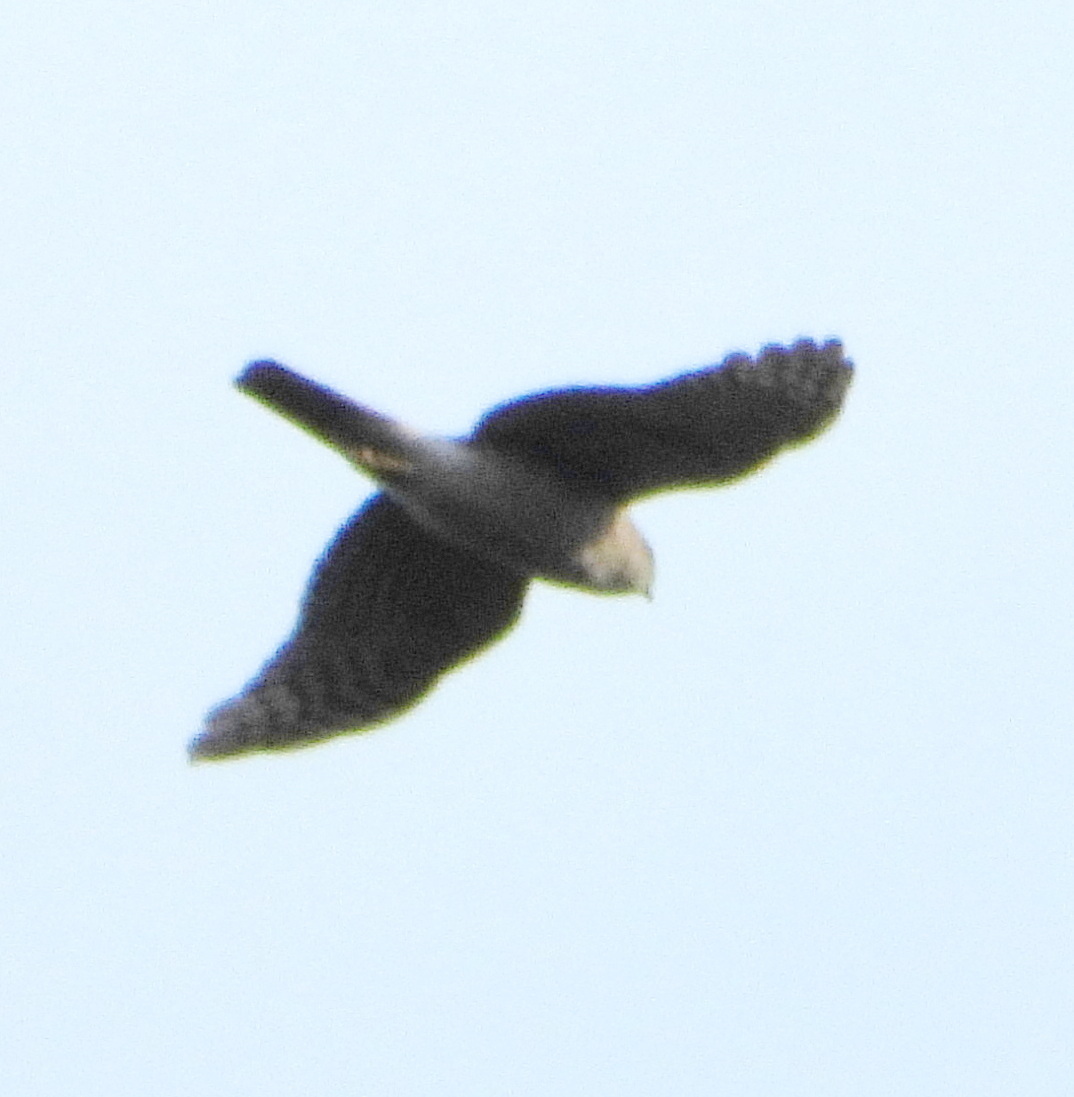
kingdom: Animalia
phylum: Chordata
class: Aves
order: Accipitriformes
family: Accipitridae
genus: Accipiter
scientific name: Accipiter nisus
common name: Eurasian sparrowhawk
